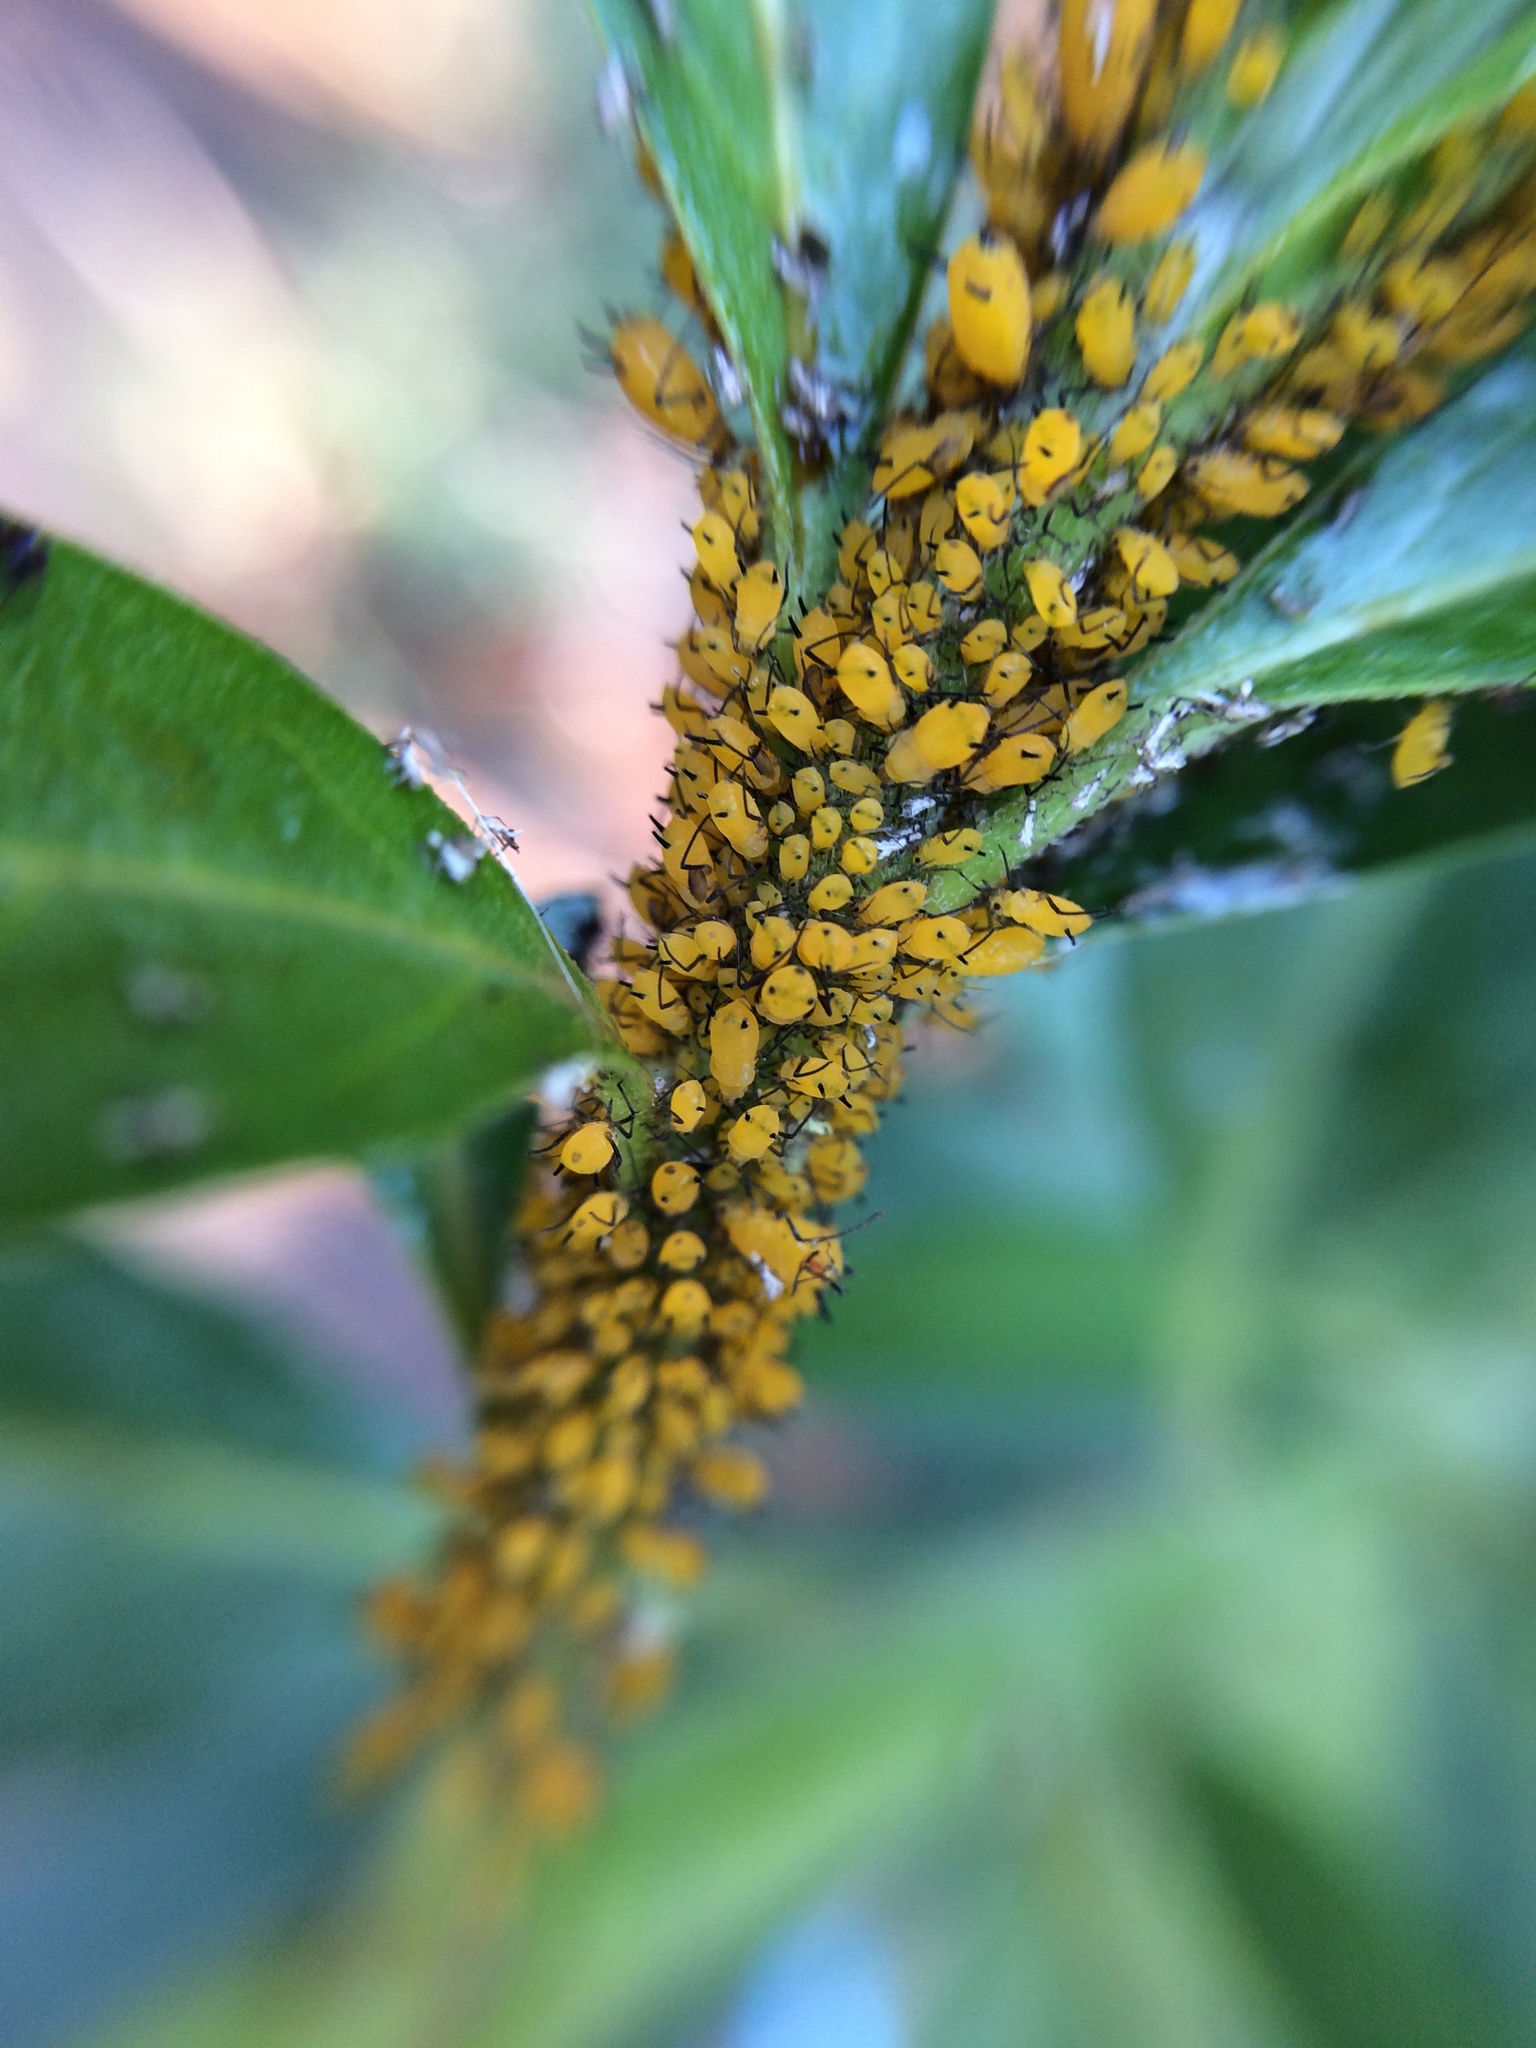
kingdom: Animalia
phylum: Arthropoda
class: Insecta
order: Hemiptera
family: Aphididae
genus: Aphis
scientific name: Aphis nerii
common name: Oleander aphid
